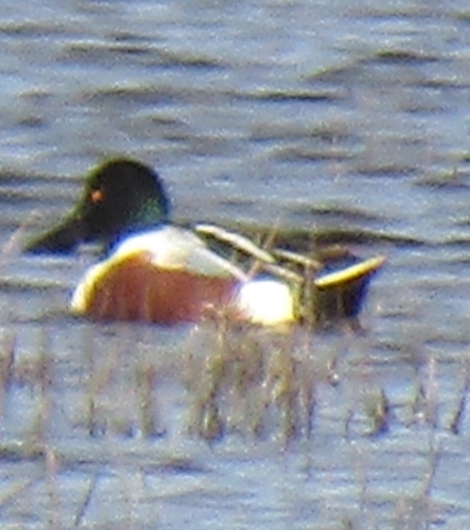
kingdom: Animalia
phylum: Chordata
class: Aves
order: Anseriformes
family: Anatidae
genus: Spatula
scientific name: Spatula clypeata
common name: Northern shoveler
